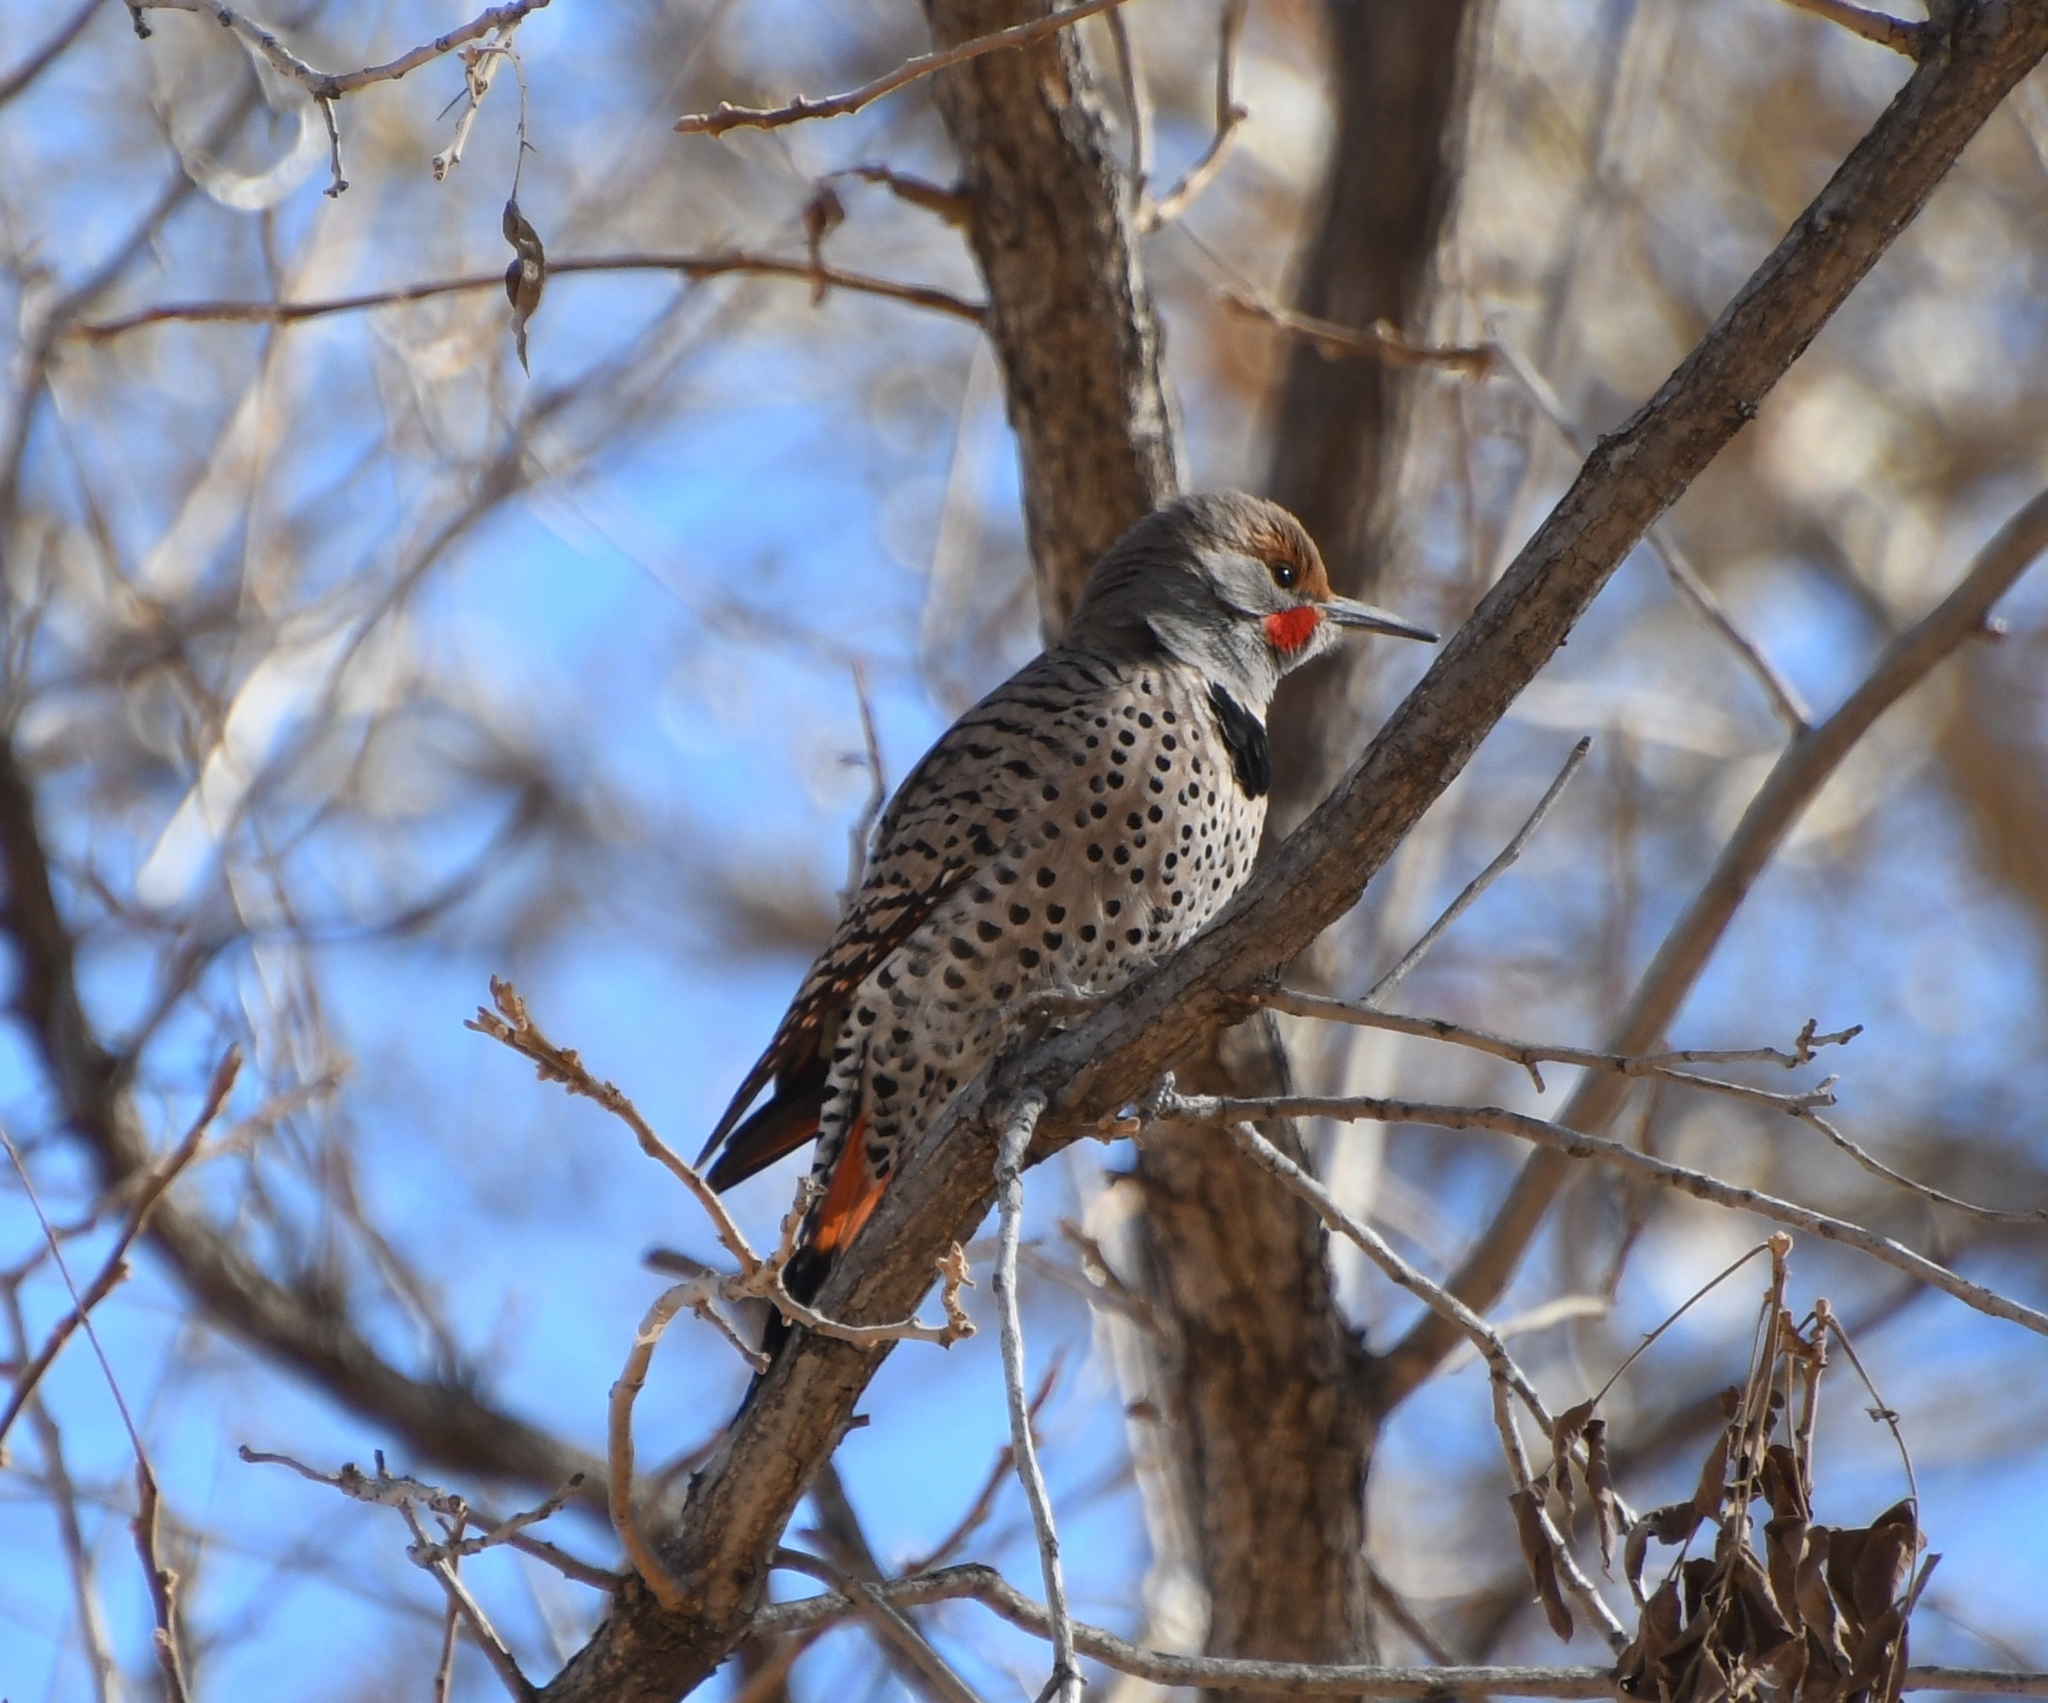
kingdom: Animalia
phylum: Chordata
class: Aves
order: Piciformes
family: Picidae
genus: Colaptes
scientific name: Colaptes auratus
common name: Northern flicker
